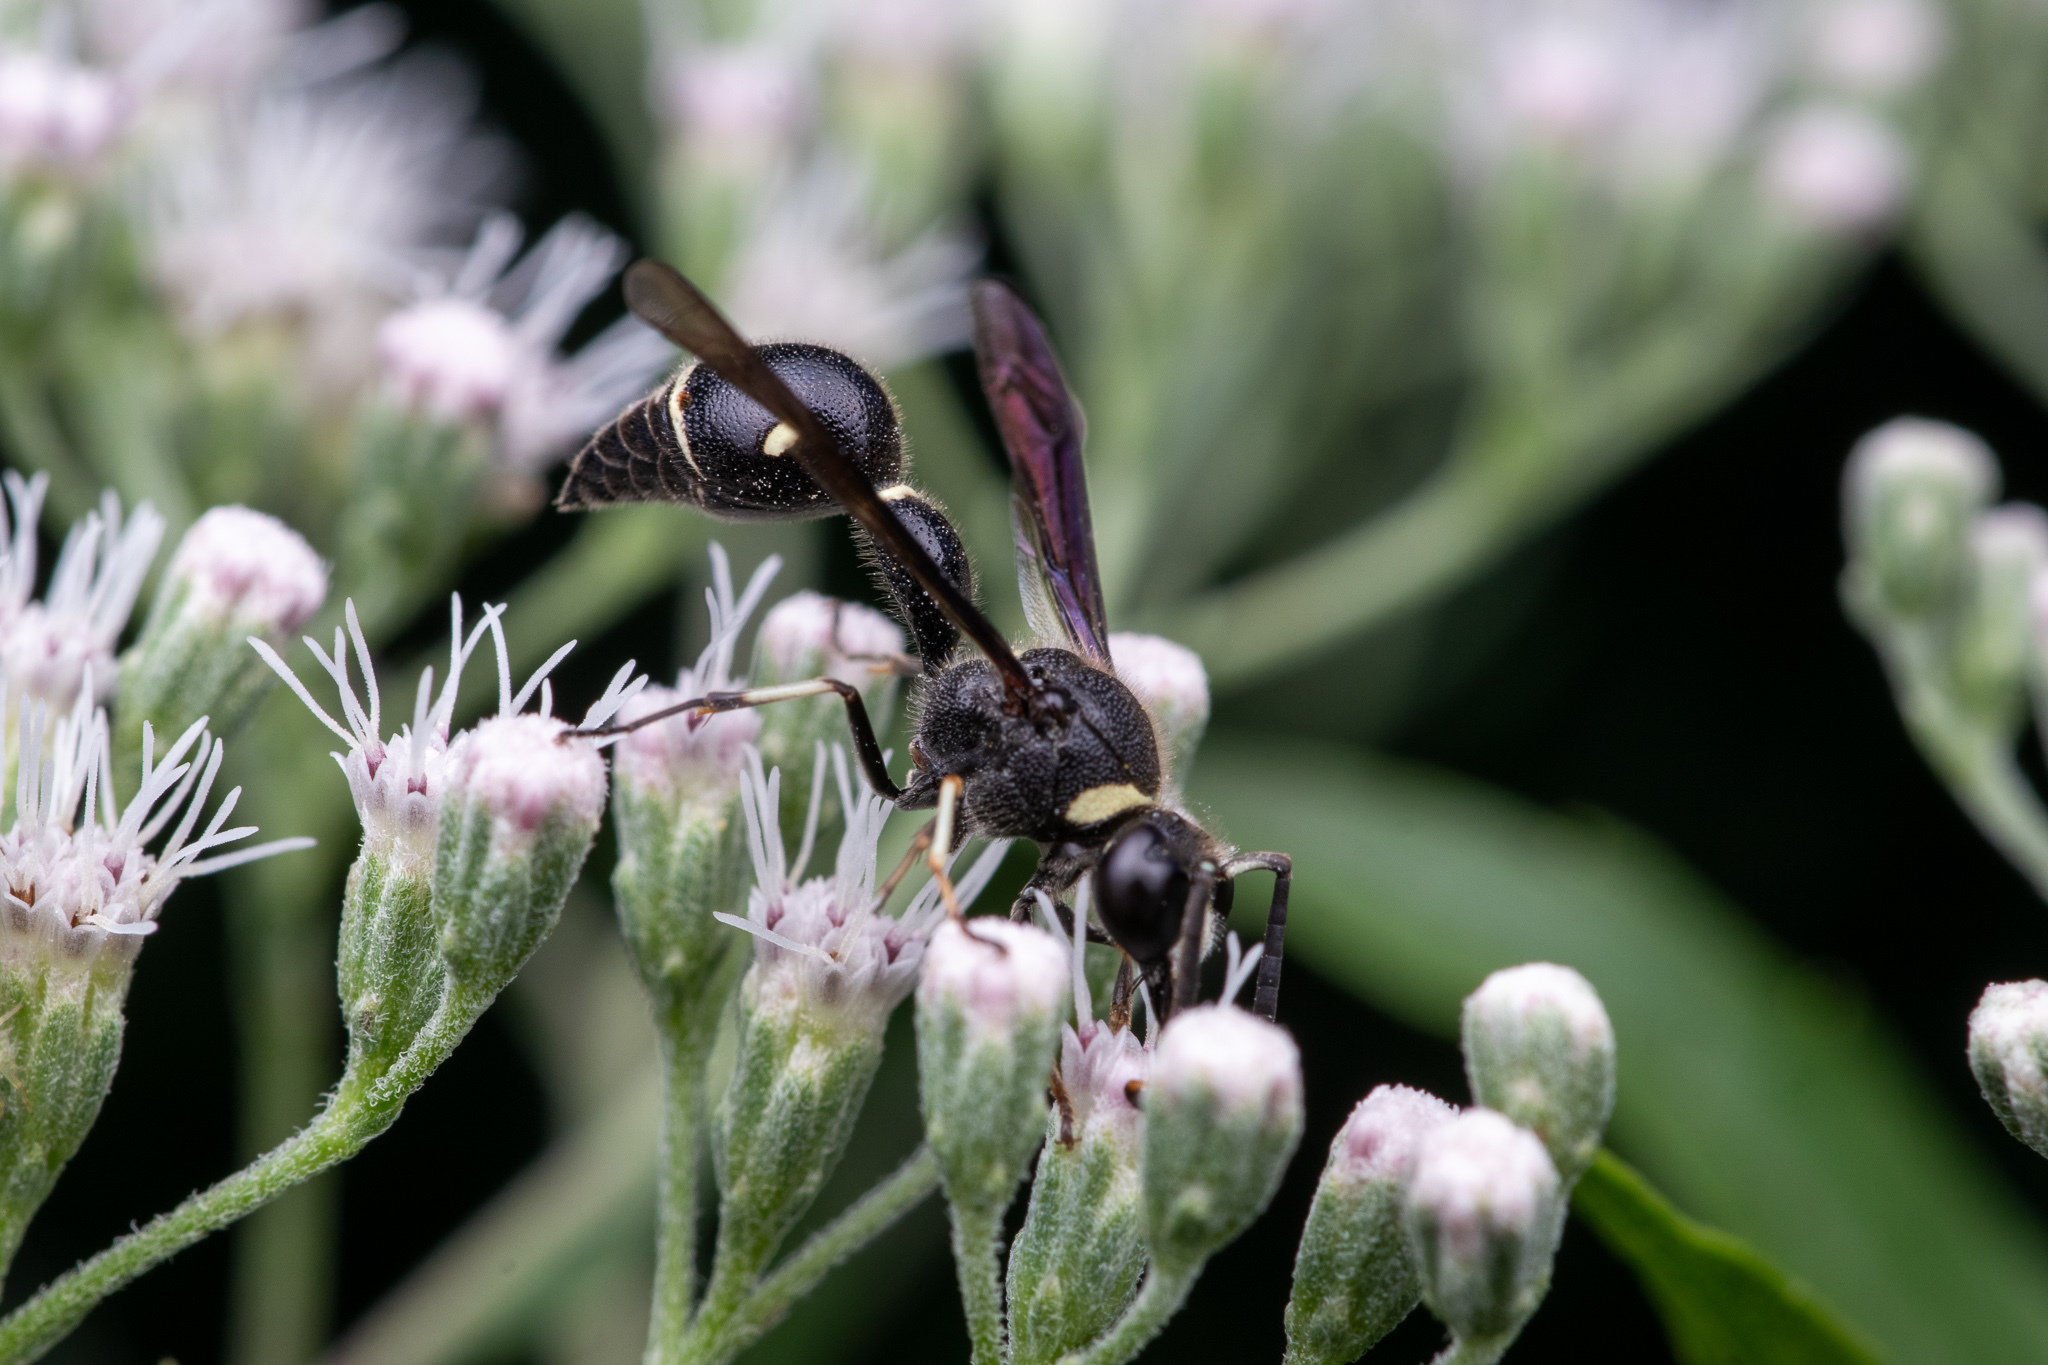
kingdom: Animalia
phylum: Arthropoda
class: Insecta
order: Hymenoptera
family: Vespidae
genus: Eumenes
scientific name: Eumenes fraternus
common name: Fraternal potter wasp
